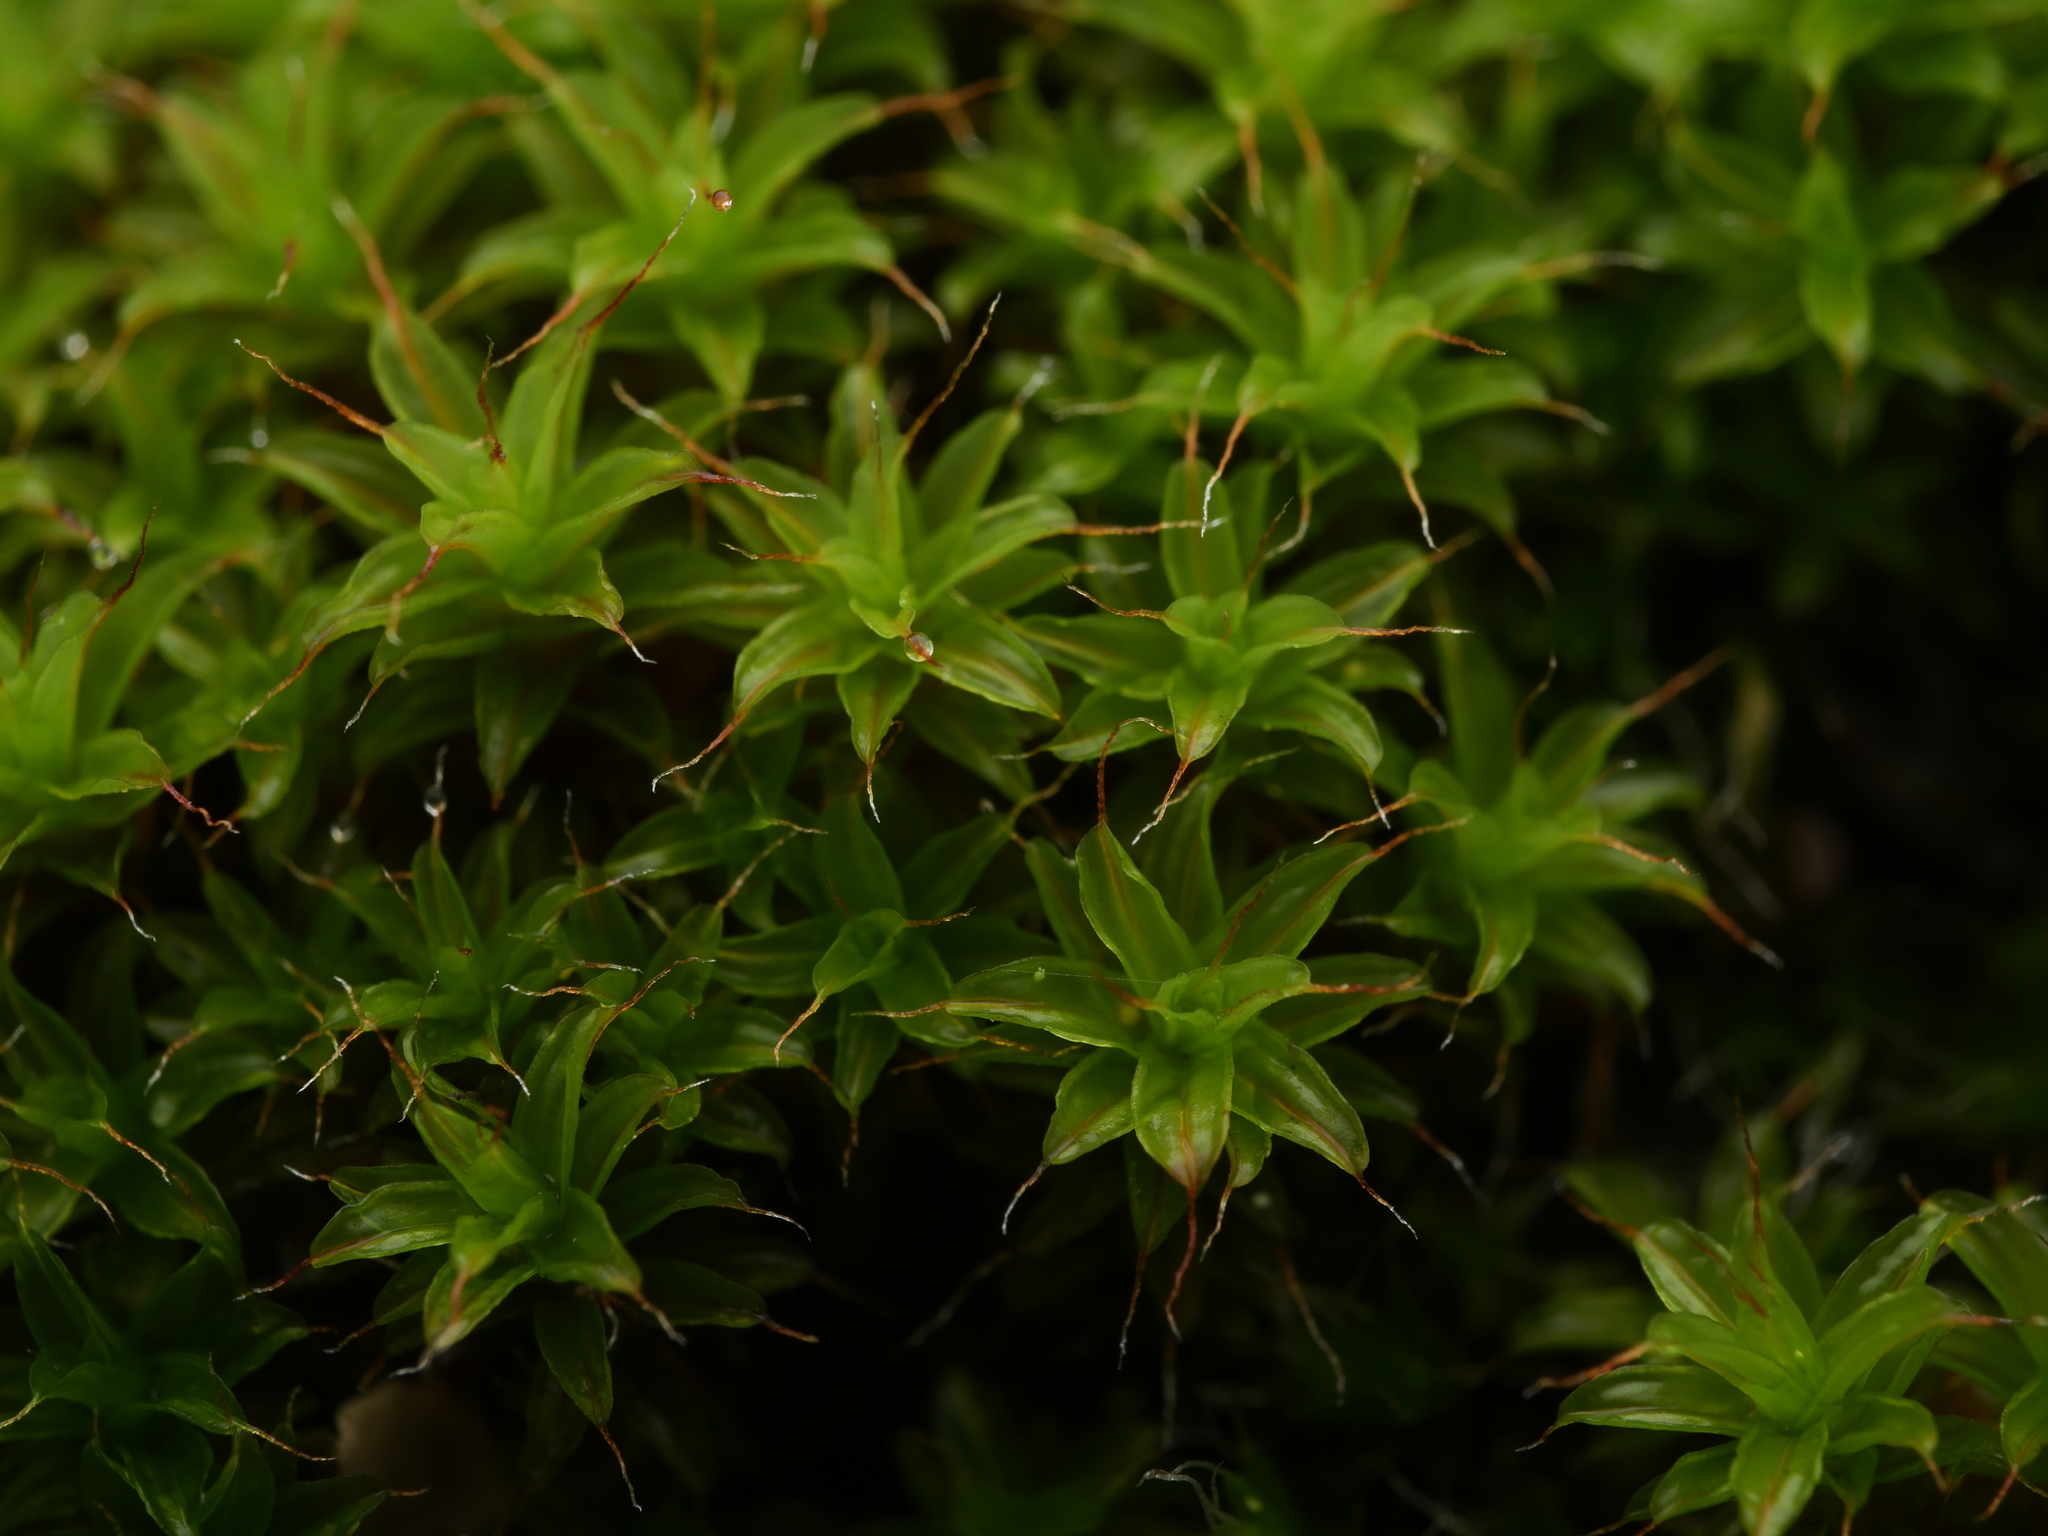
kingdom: Plantae
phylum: Bryophyta
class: Bryopsida
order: Pottiales
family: Pottiaceae
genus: Syntrichia
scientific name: Syntrichia ruralis
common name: Sidewalk screw moss
